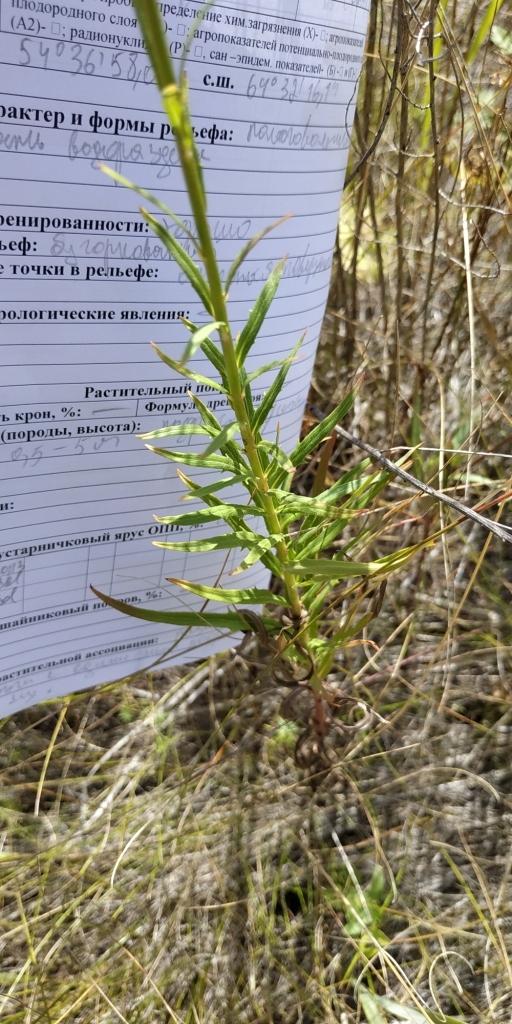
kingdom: Plantae
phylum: Tracheophyta
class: Magnoliopsida
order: Asterales
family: Asteraceae
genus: Hieracium
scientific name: Hieracium umbellatum
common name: Northern hawkweed
